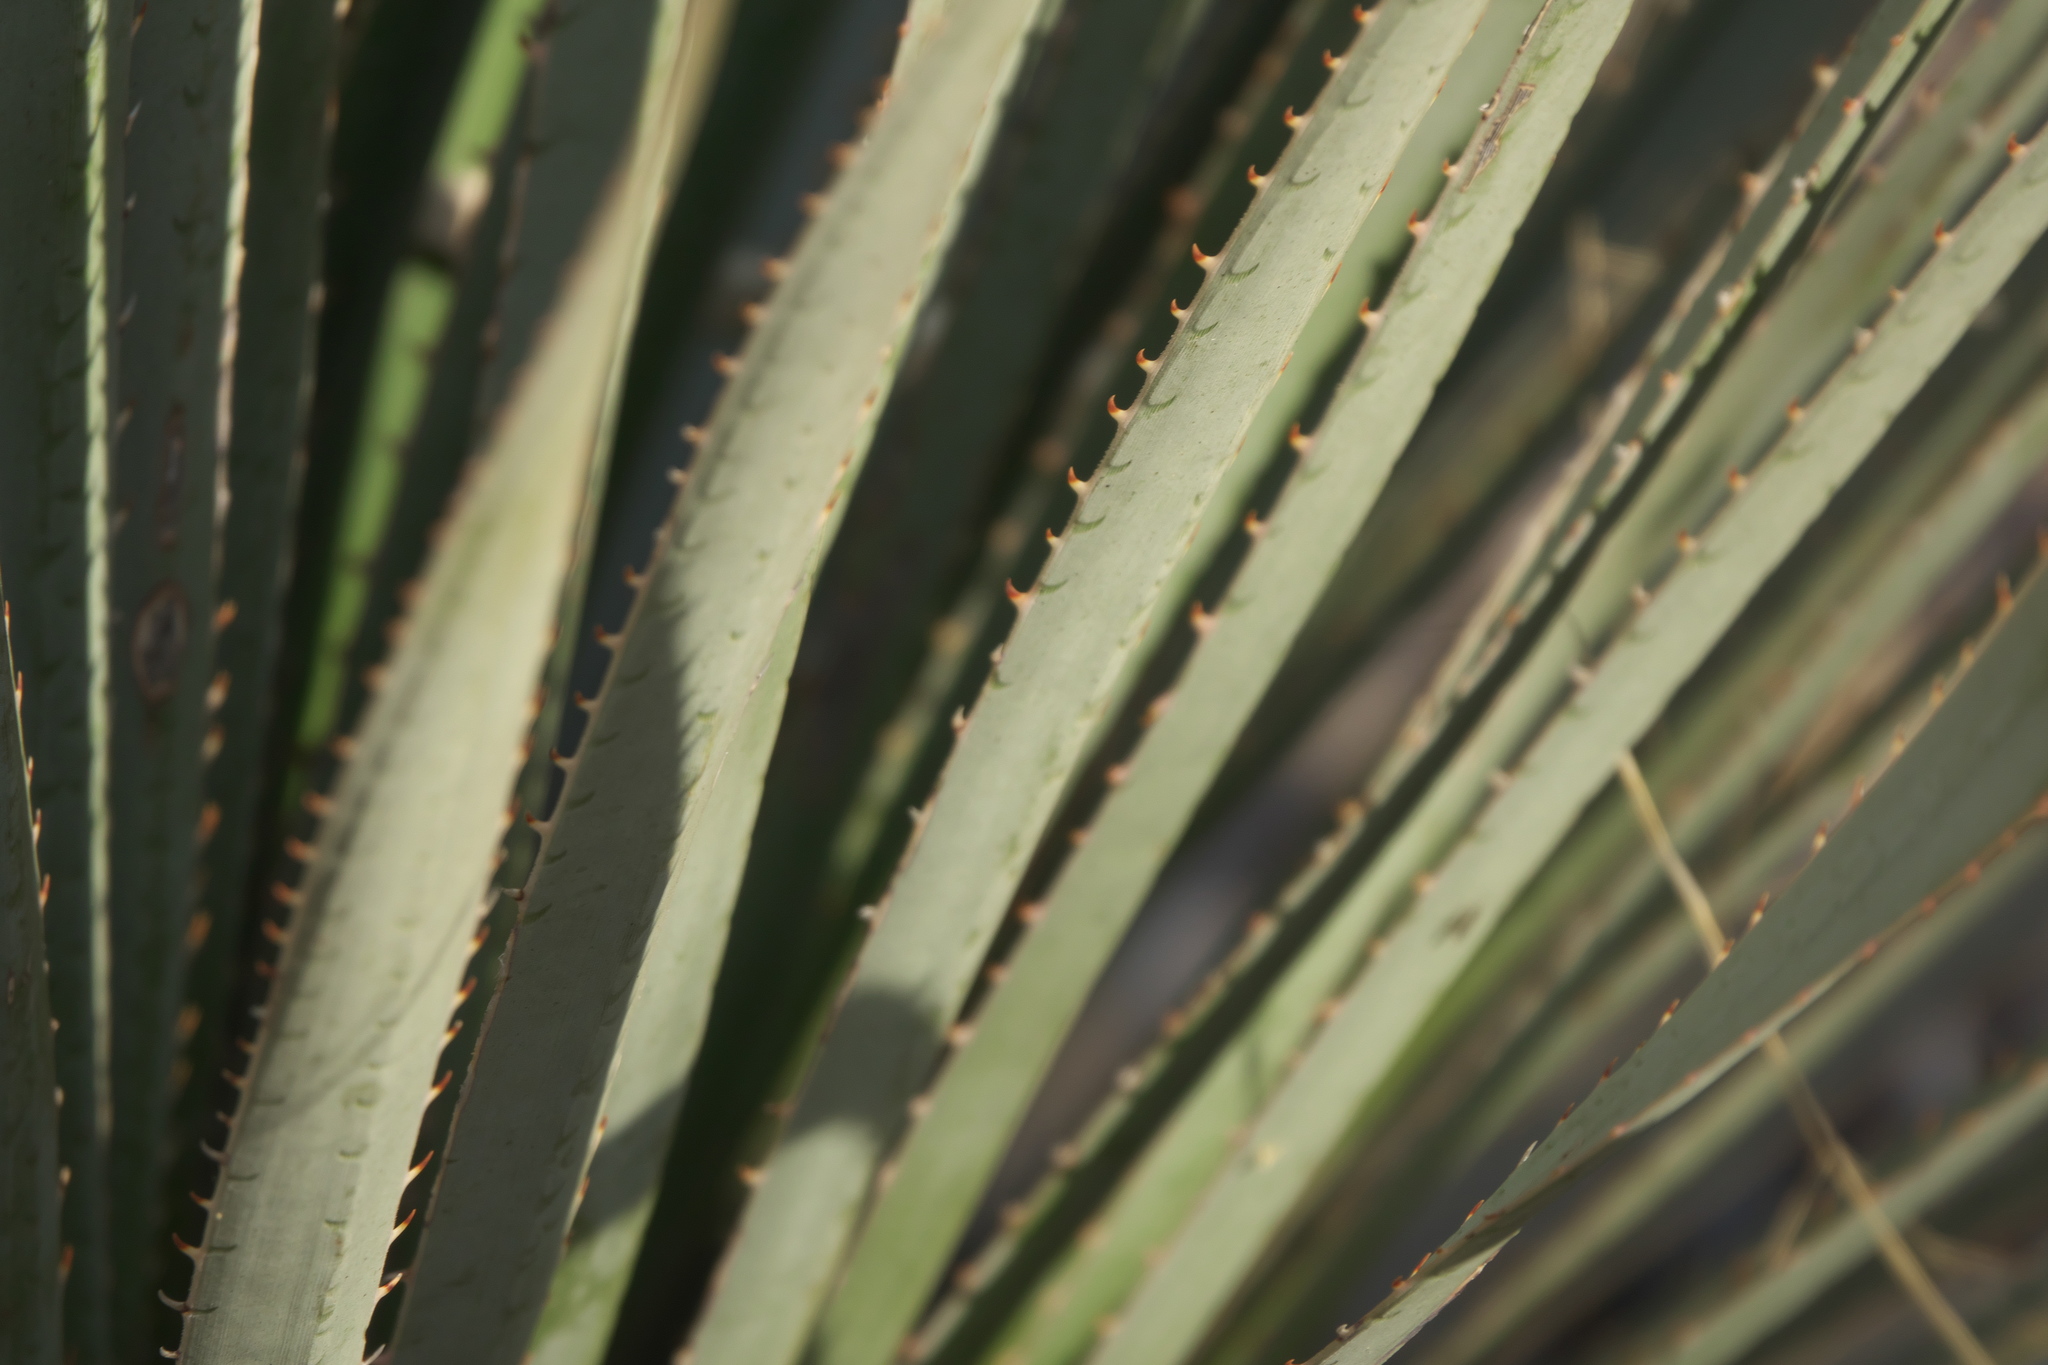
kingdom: Plantae
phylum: Tracheophyta
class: Liliopsida
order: Asparagales
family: Asparagaceae
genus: Dasylirion
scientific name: Dasylirion wheeleri
